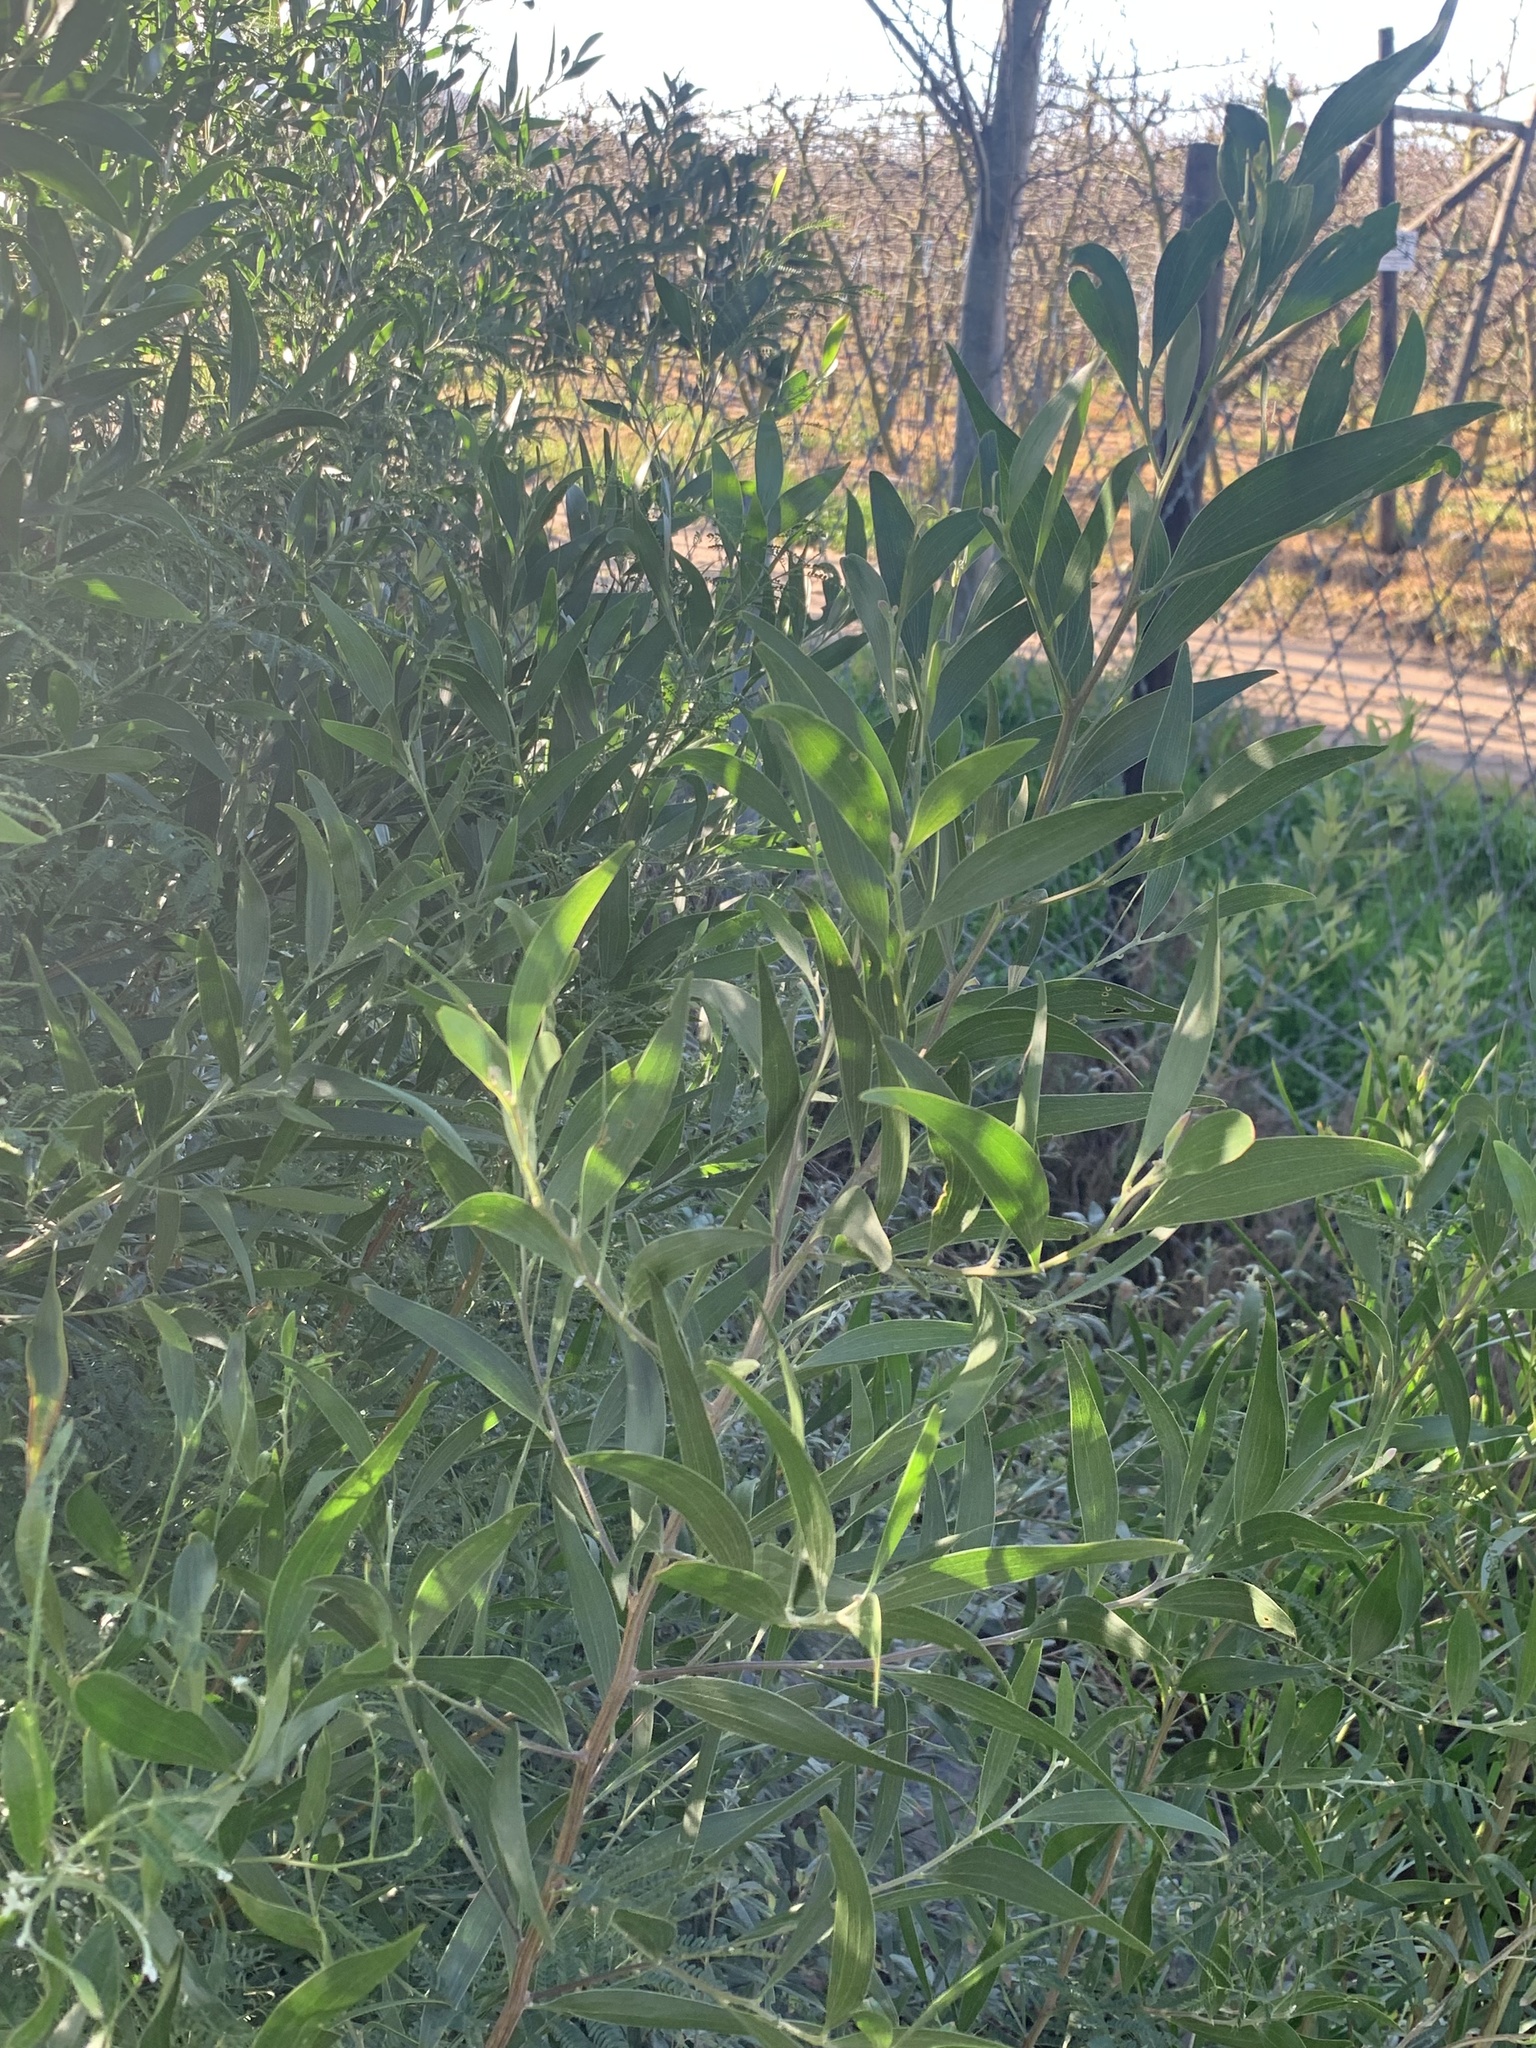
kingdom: Plantae
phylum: Tracheophyta
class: Magnoliopsida
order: Fabales
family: Fabaceae
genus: Acacia
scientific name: Acacia melanoxylon
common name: Blackwood
